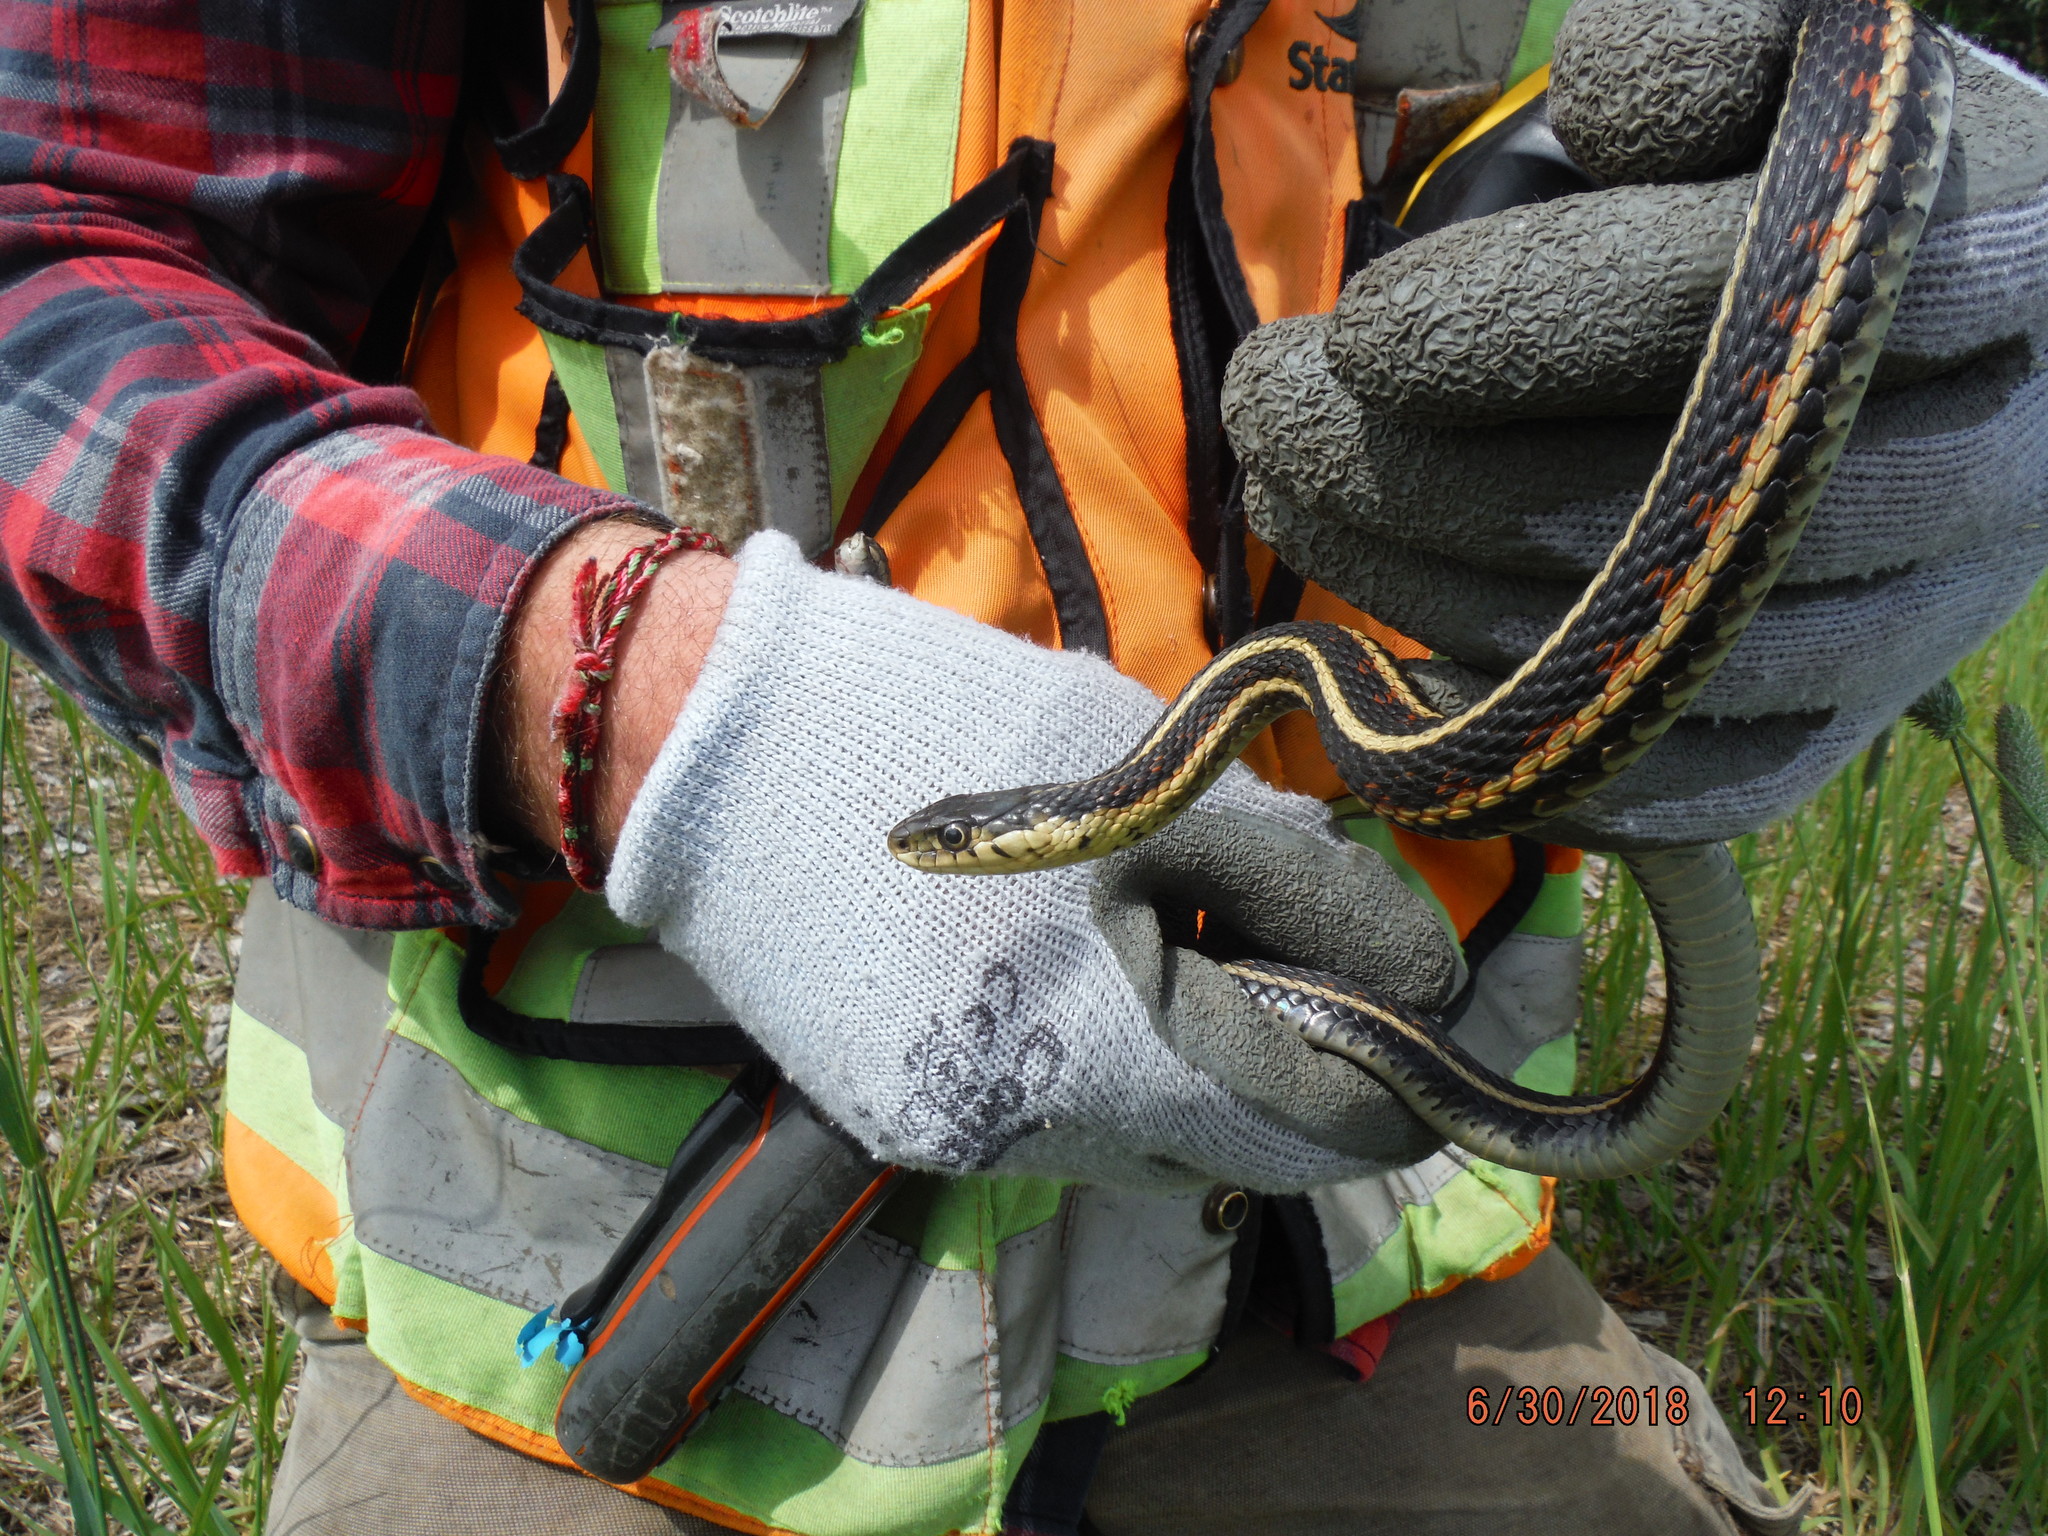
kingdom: Animalia
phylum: Chordata
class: Squamata
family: Colubridae
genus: Thamnophis
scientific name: Thamnophis sirtalis
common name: Common garter snake
